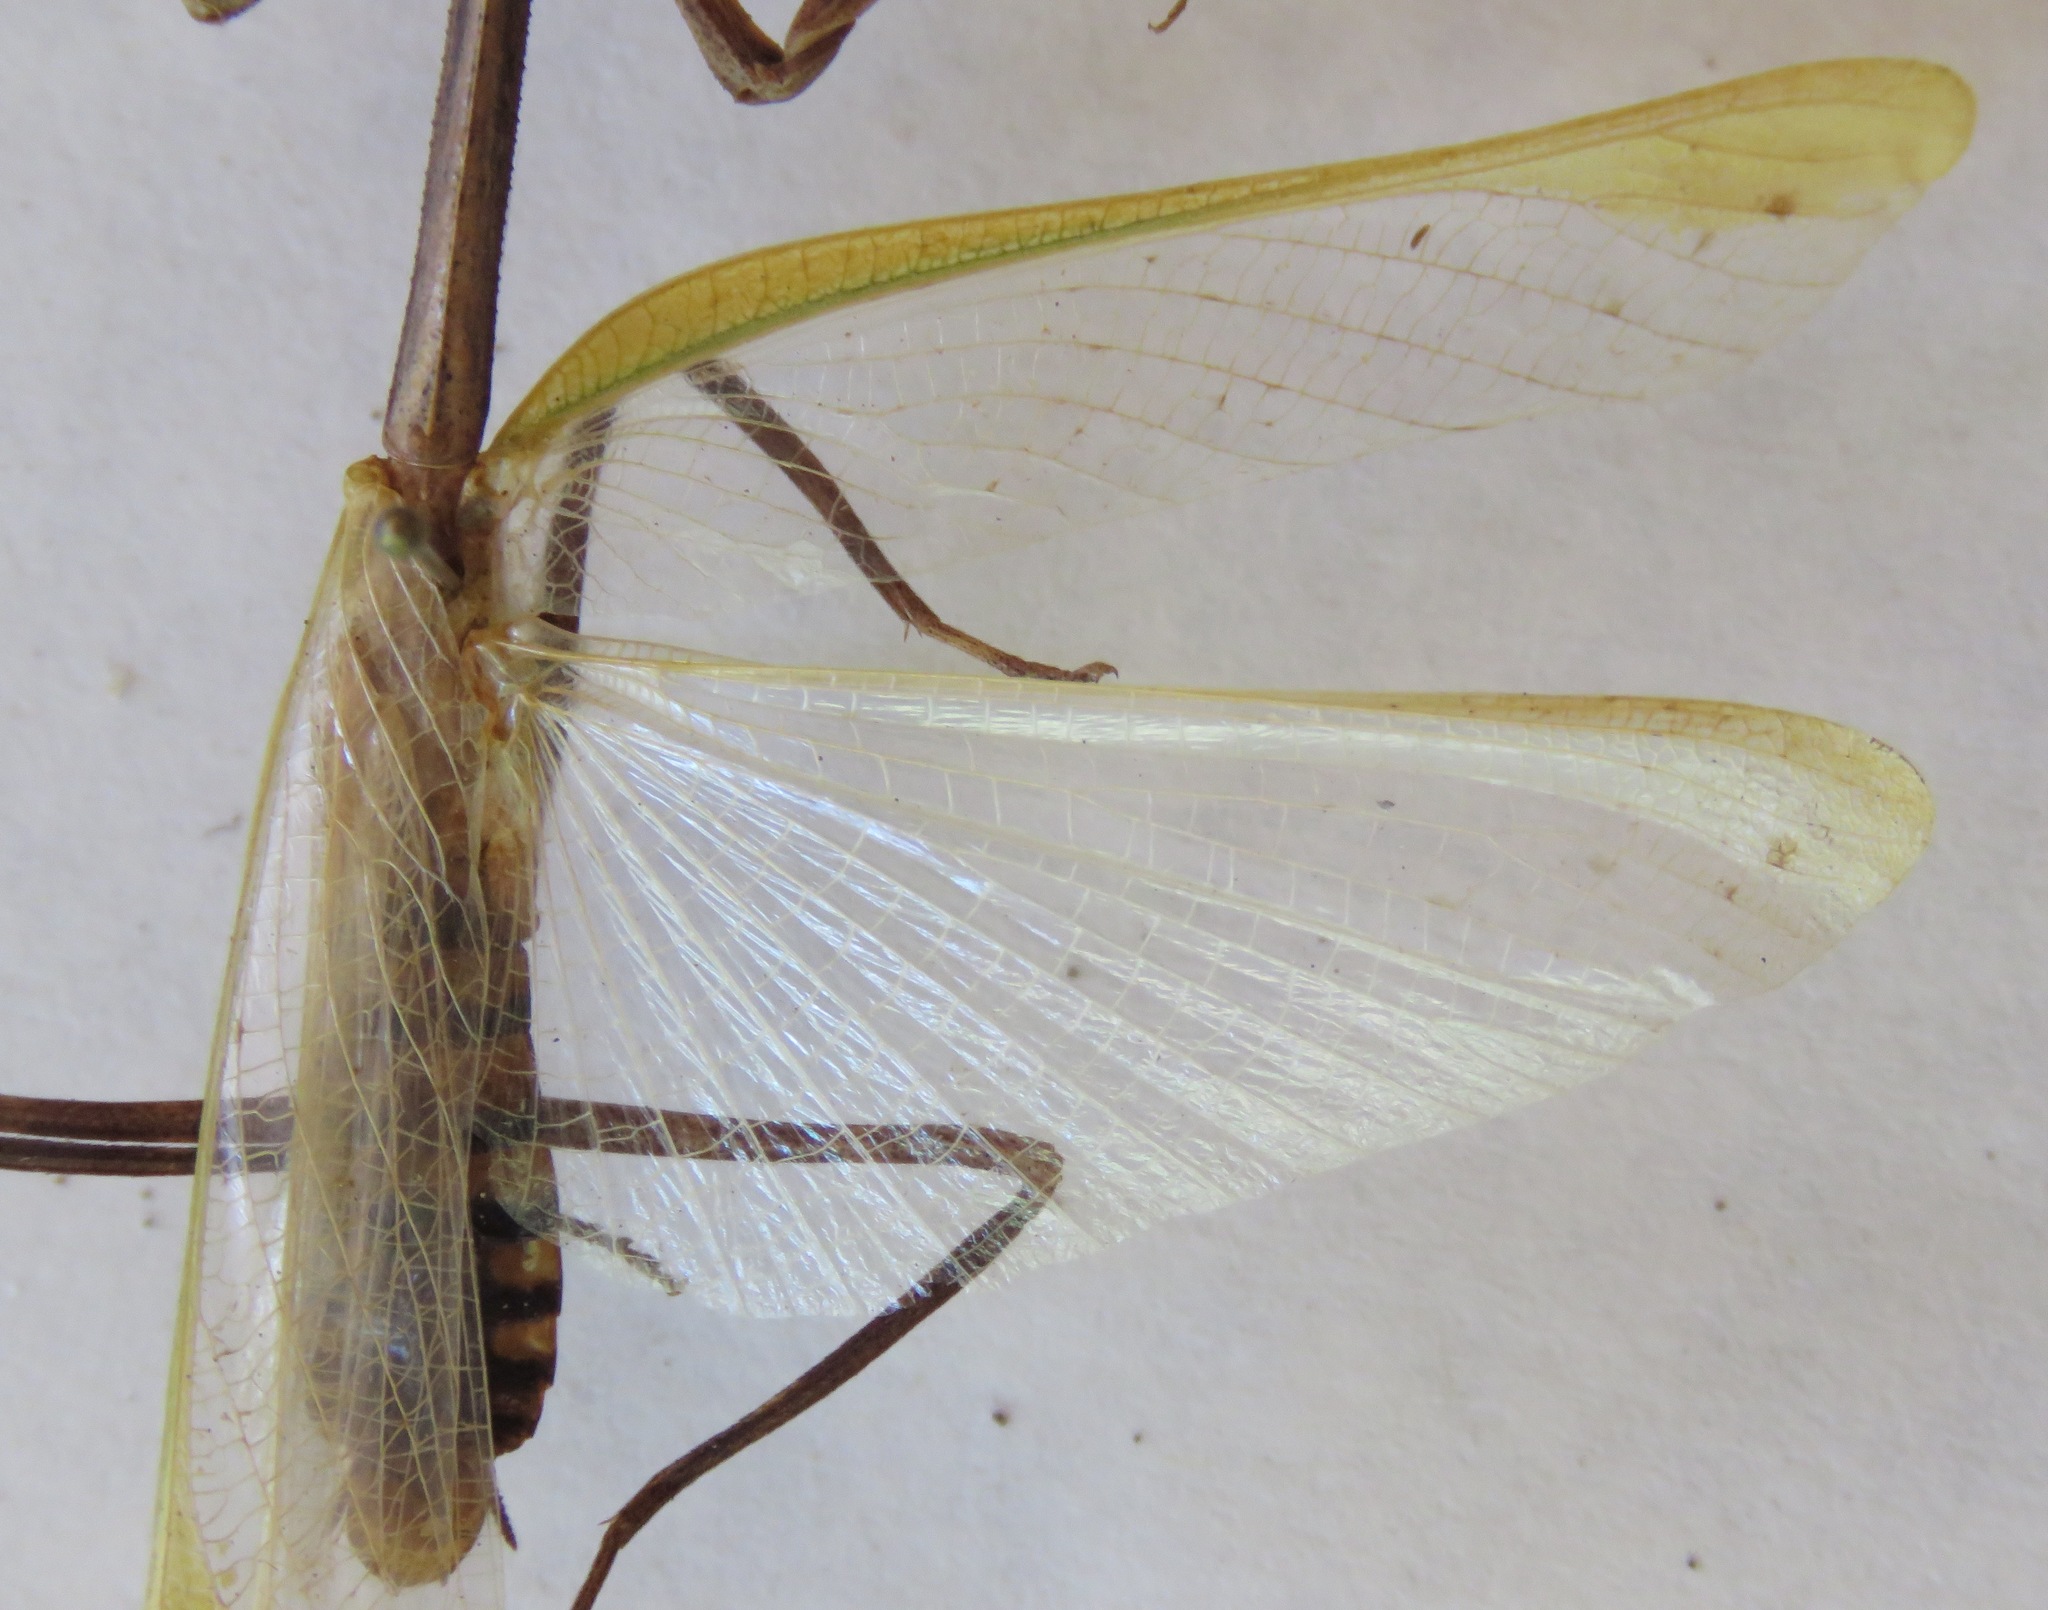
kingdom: Animalia
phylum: Arthropoda
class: Insecta
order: Mantodea
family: Mantidae
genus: Pseudovates
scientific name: Pseudovates chlorophaea
